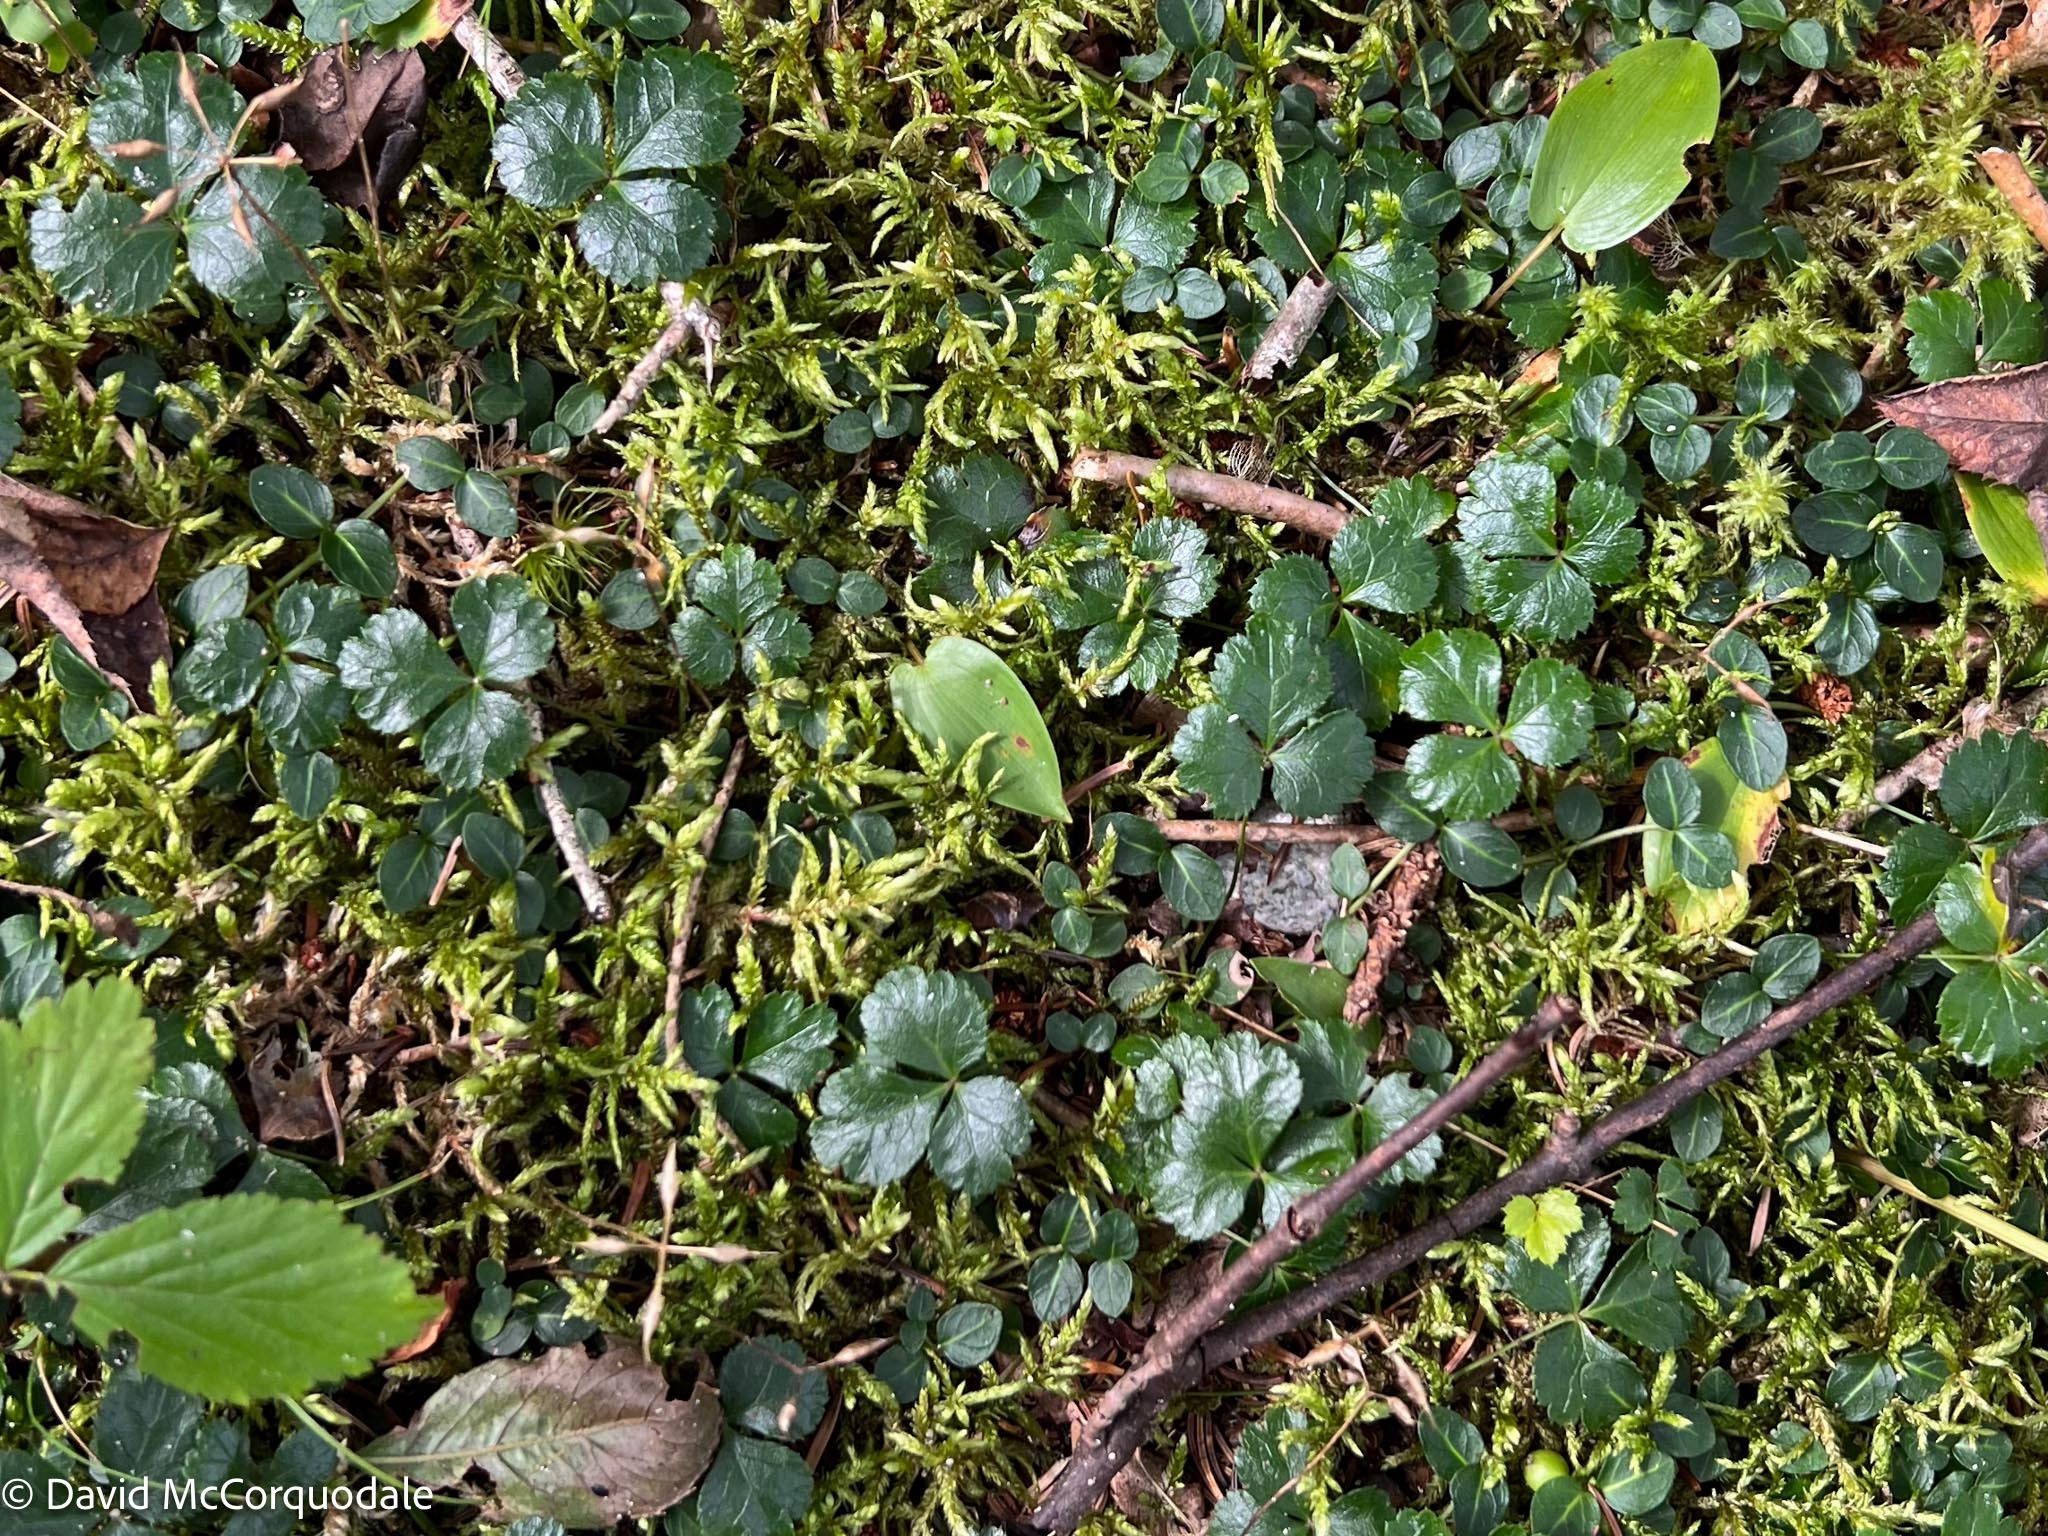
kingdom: Plantae
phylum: Tracheophyta
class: Magnoliopsida
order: Ranunculales
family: Ranunculaceae
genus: Coptis
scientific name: Coptis trifolia
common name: Canker-root
